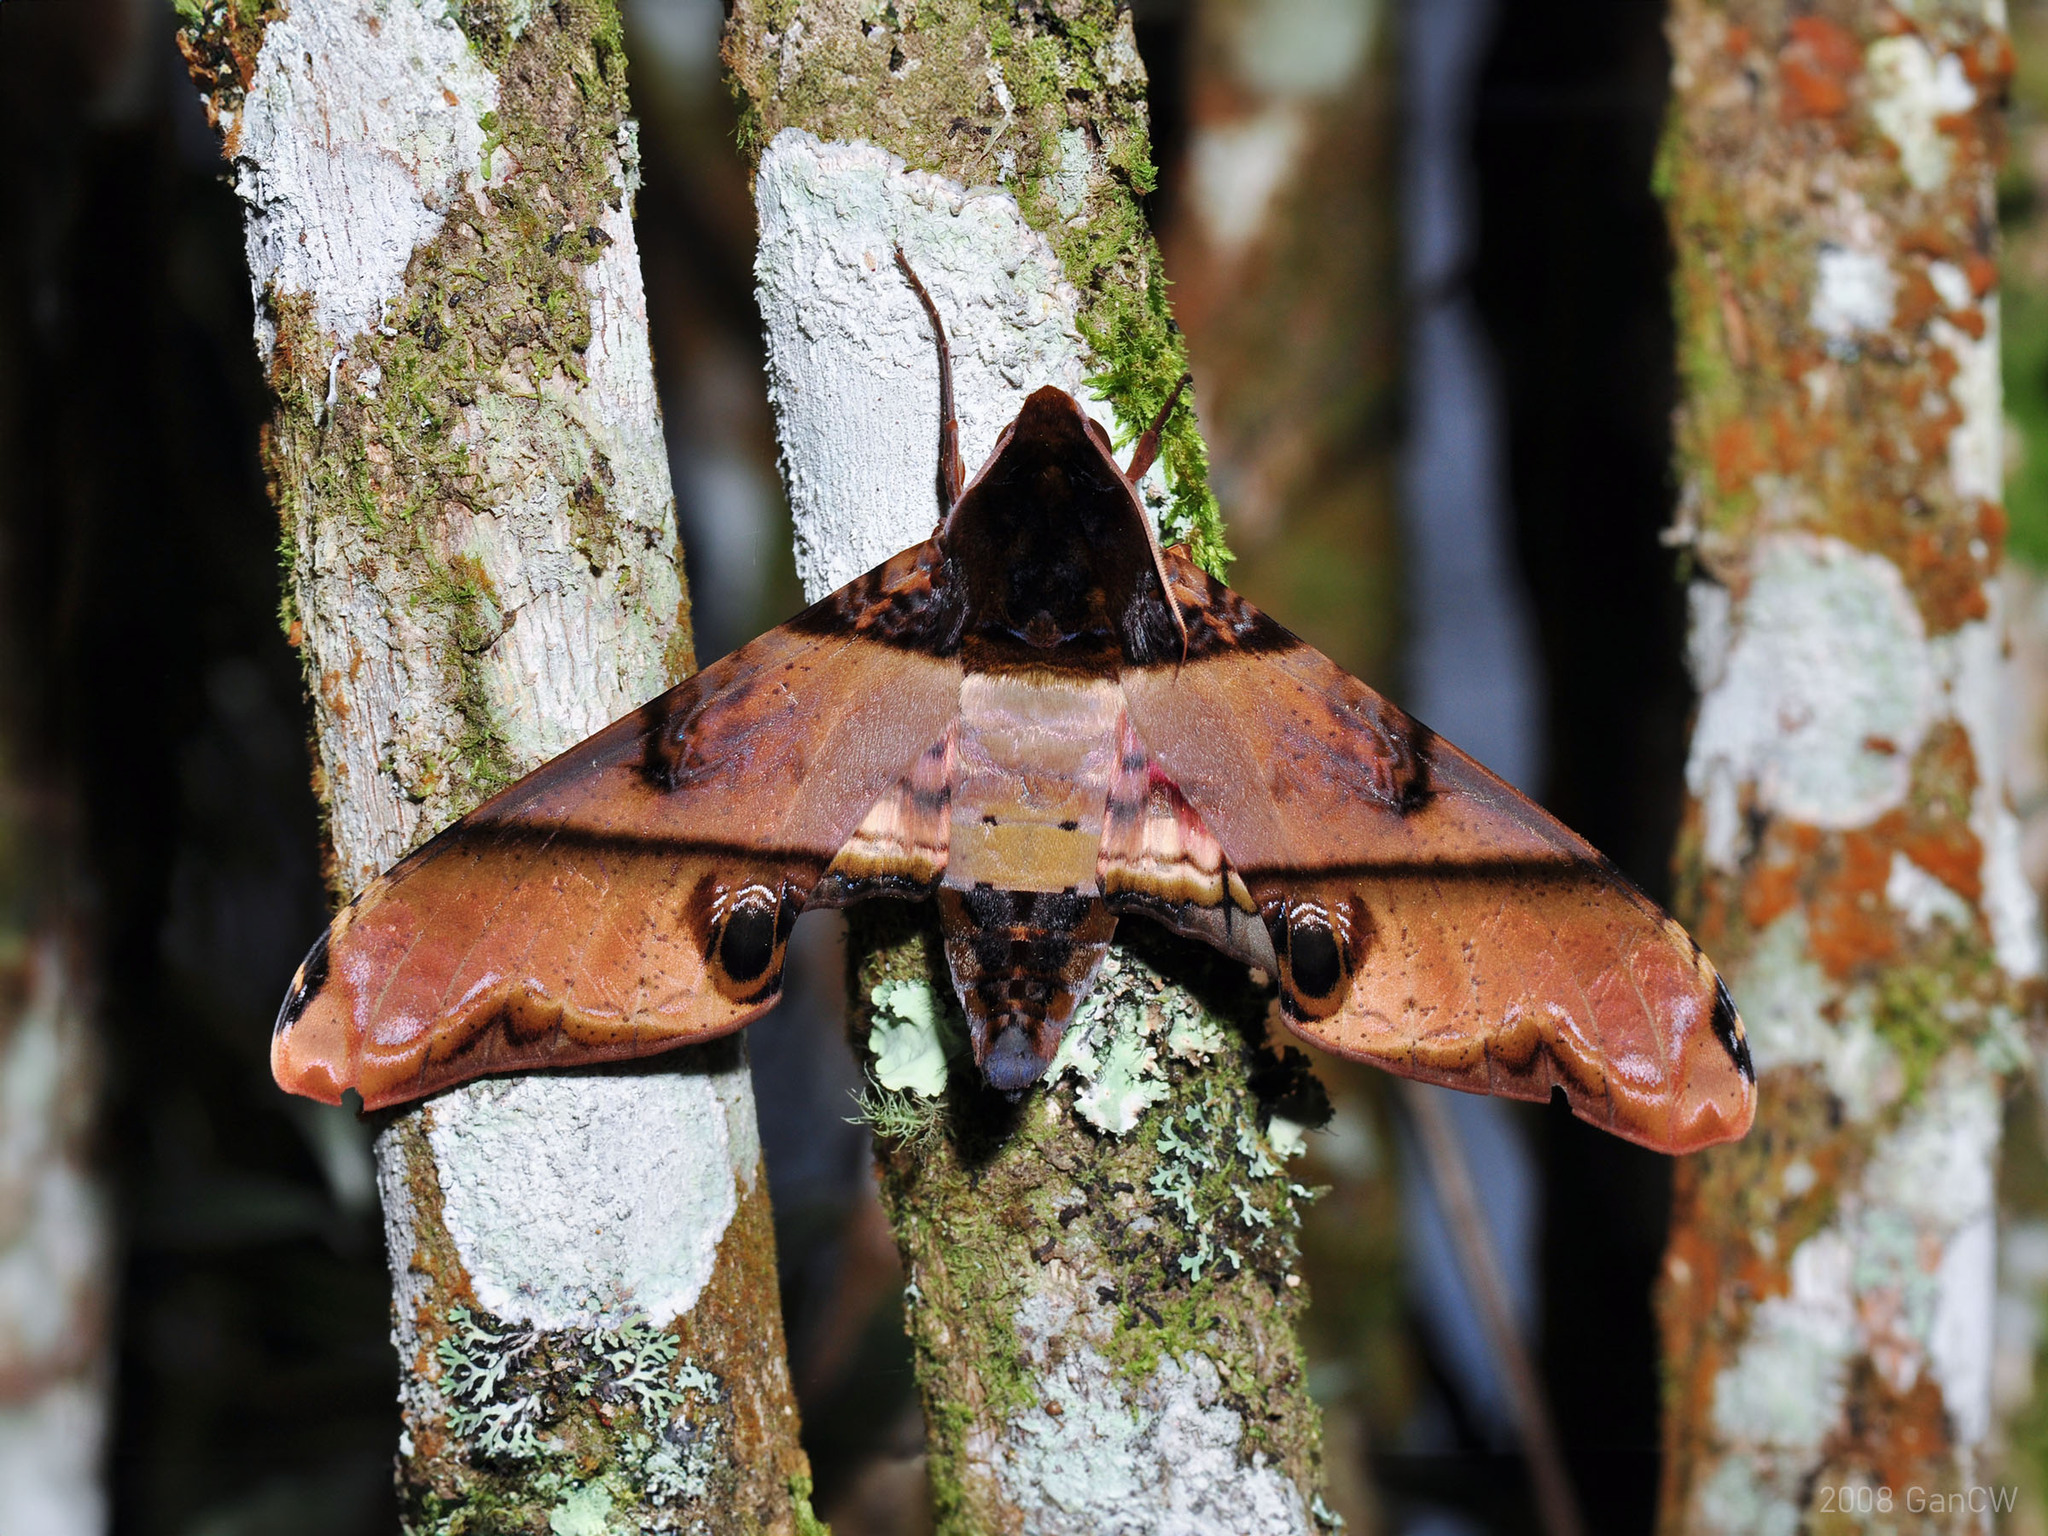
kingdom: Animalia
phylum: Arthropoda
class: Insecta
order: Lepidoptera
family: Sphingidae
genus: Amplypterus
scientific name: Amplypterus panopus
